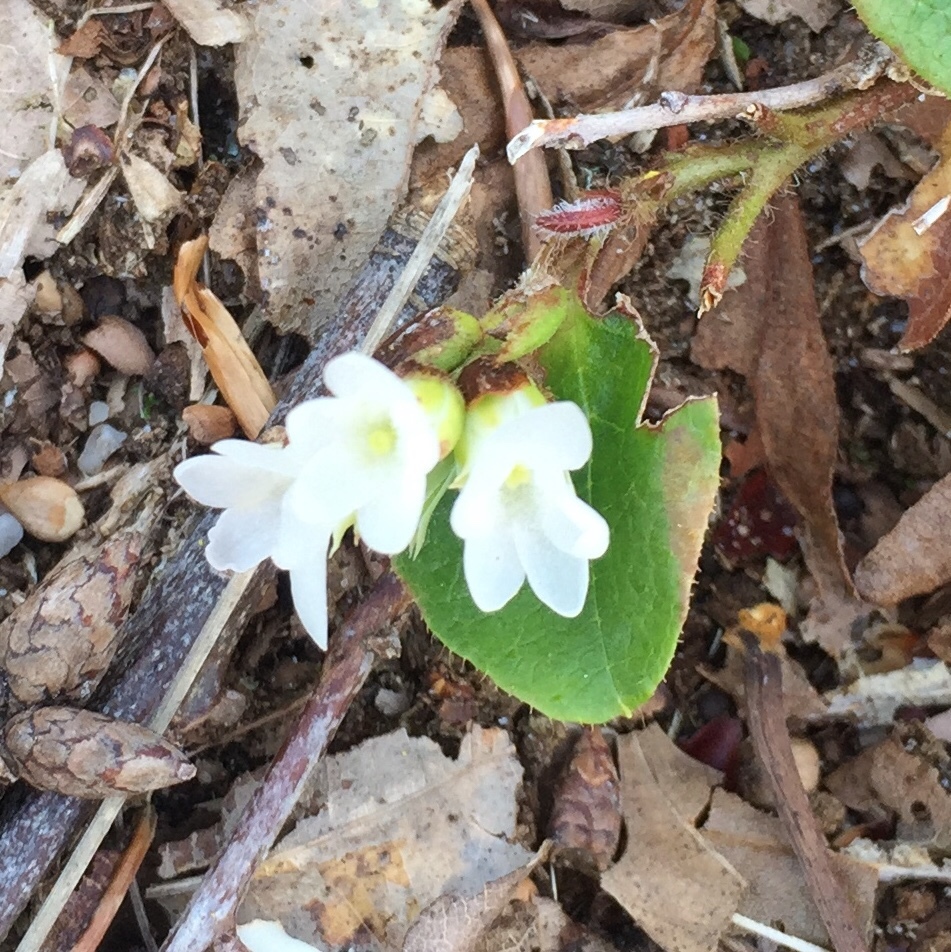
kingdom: Plantae
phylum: Tracheophyta
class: Magnoliopsida
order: Ericales
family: Ericaceae
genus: Epigaea
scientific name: Epigaea repens
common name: Gravelroot
